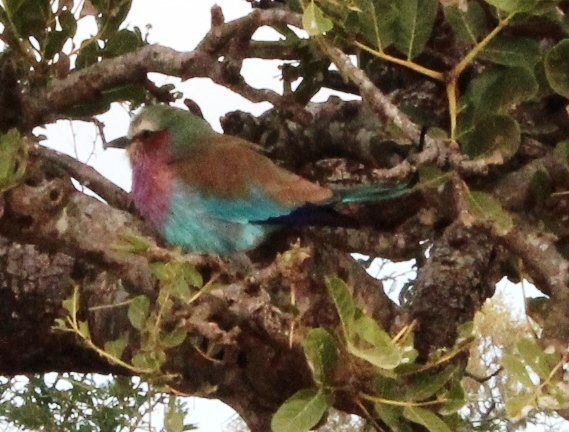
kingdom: Animalia
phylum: Chordata
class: Aves
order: Coraciiformes
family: Coraciidae
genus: Coracias
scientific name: Coracias caudatus
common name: Lilac-breasted roller
